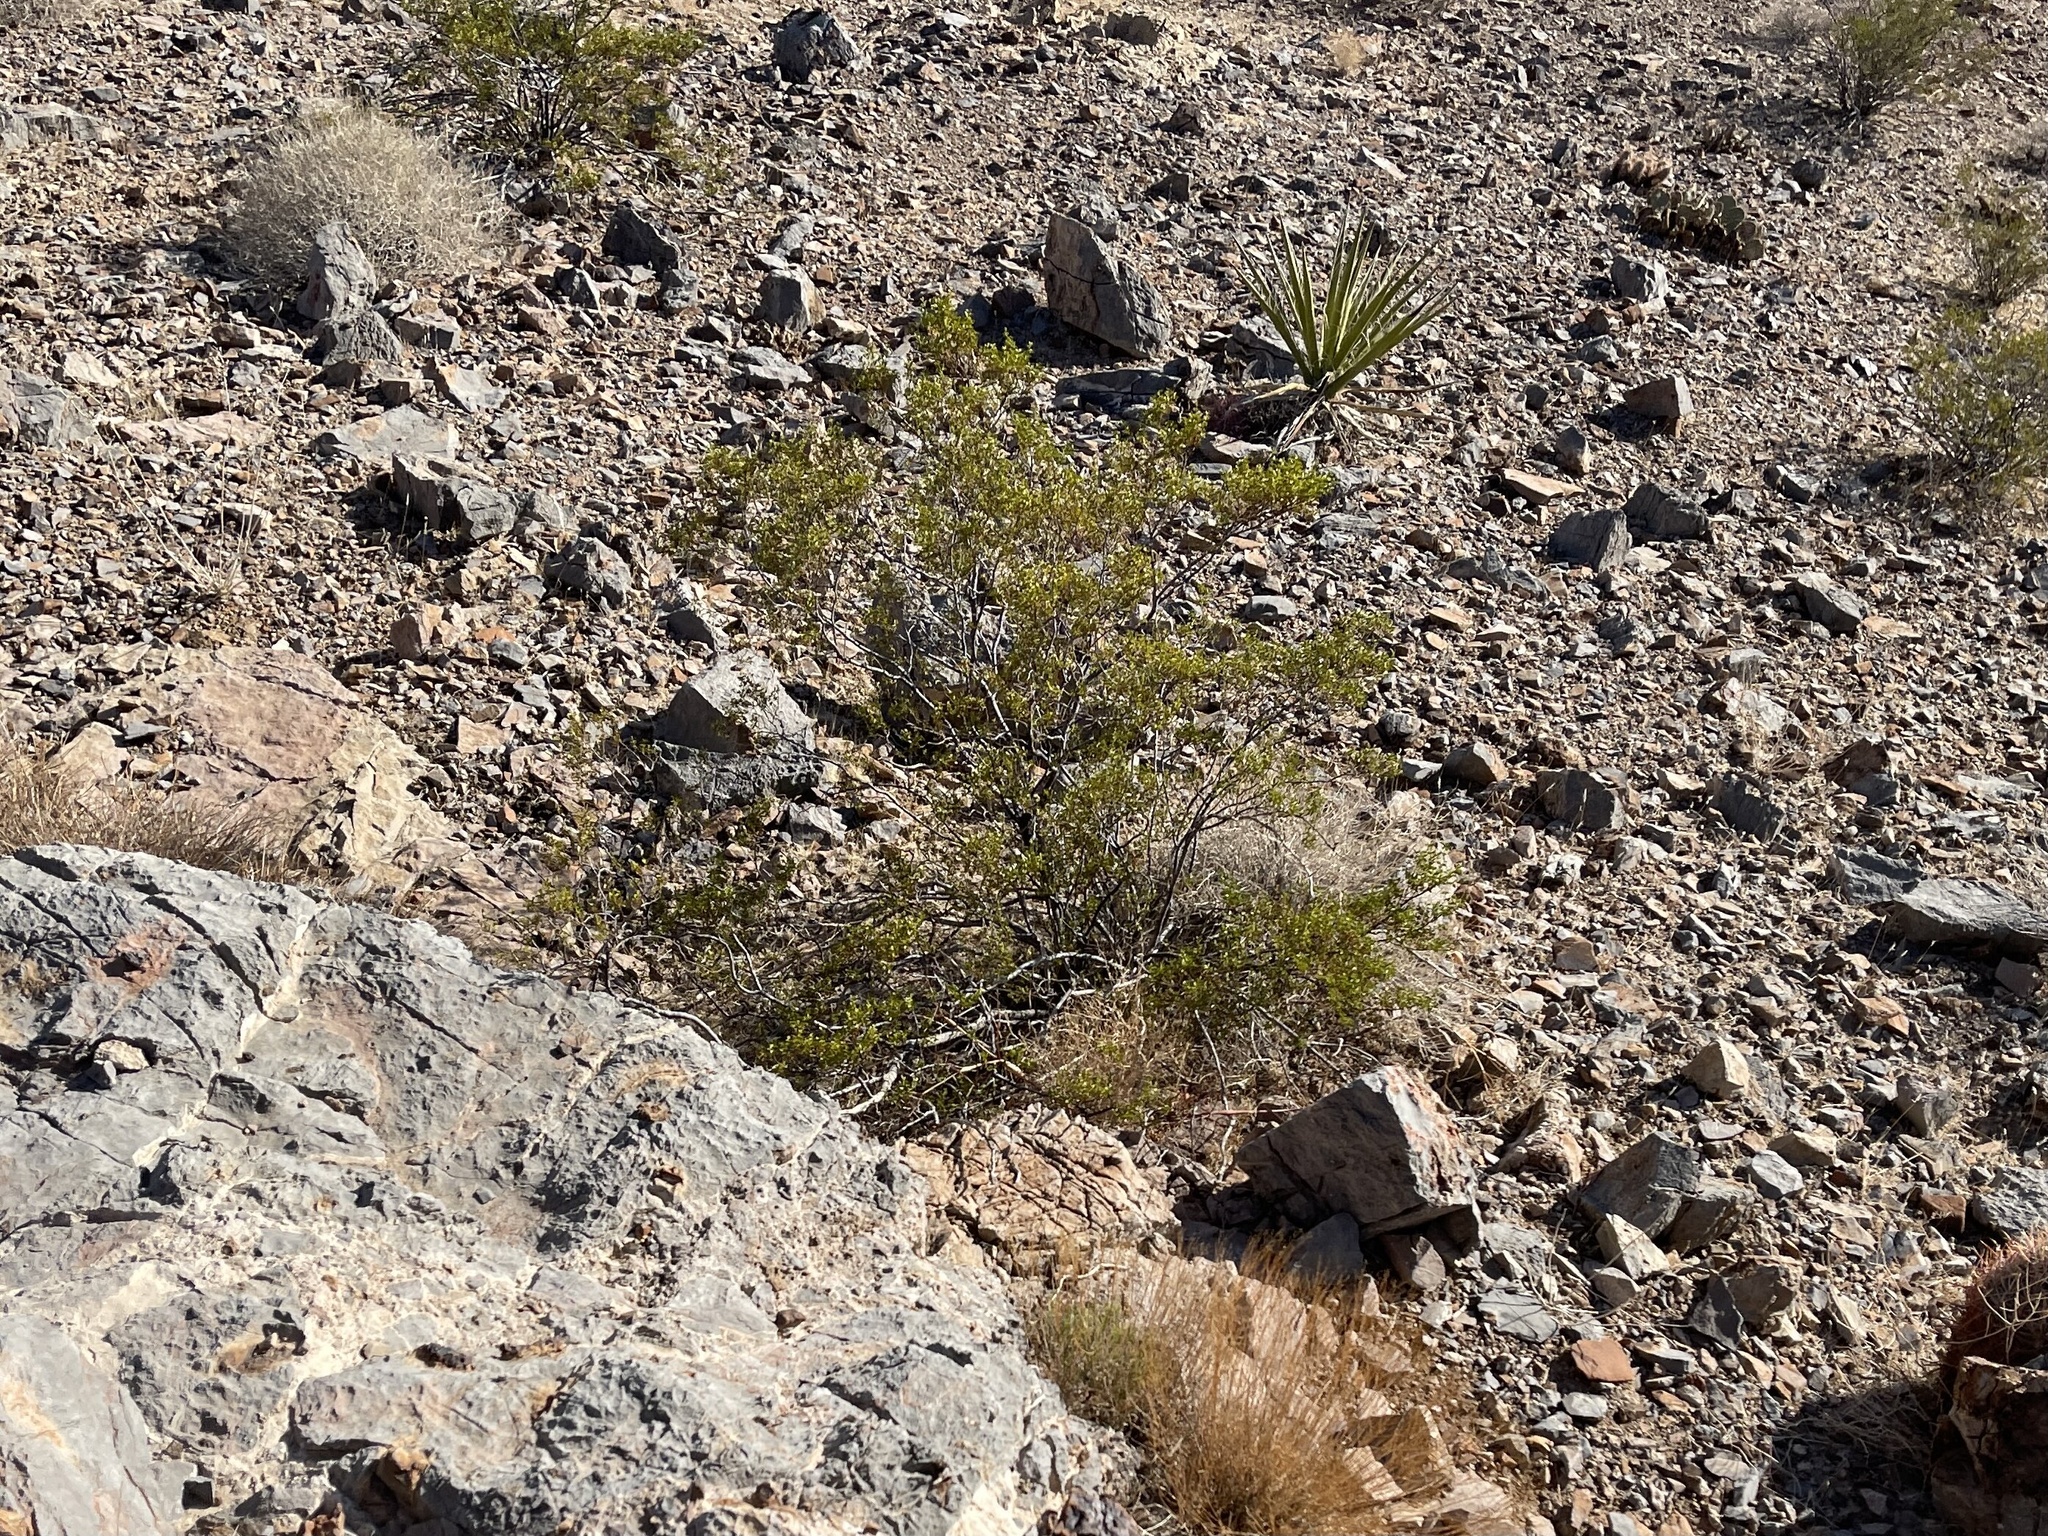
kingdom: Plantae
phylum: Tracheophyta
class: Magnoliopsida
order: Zygophyllales
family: Zygophyllaceae
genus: Larrea
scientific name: Larrea tridentata
